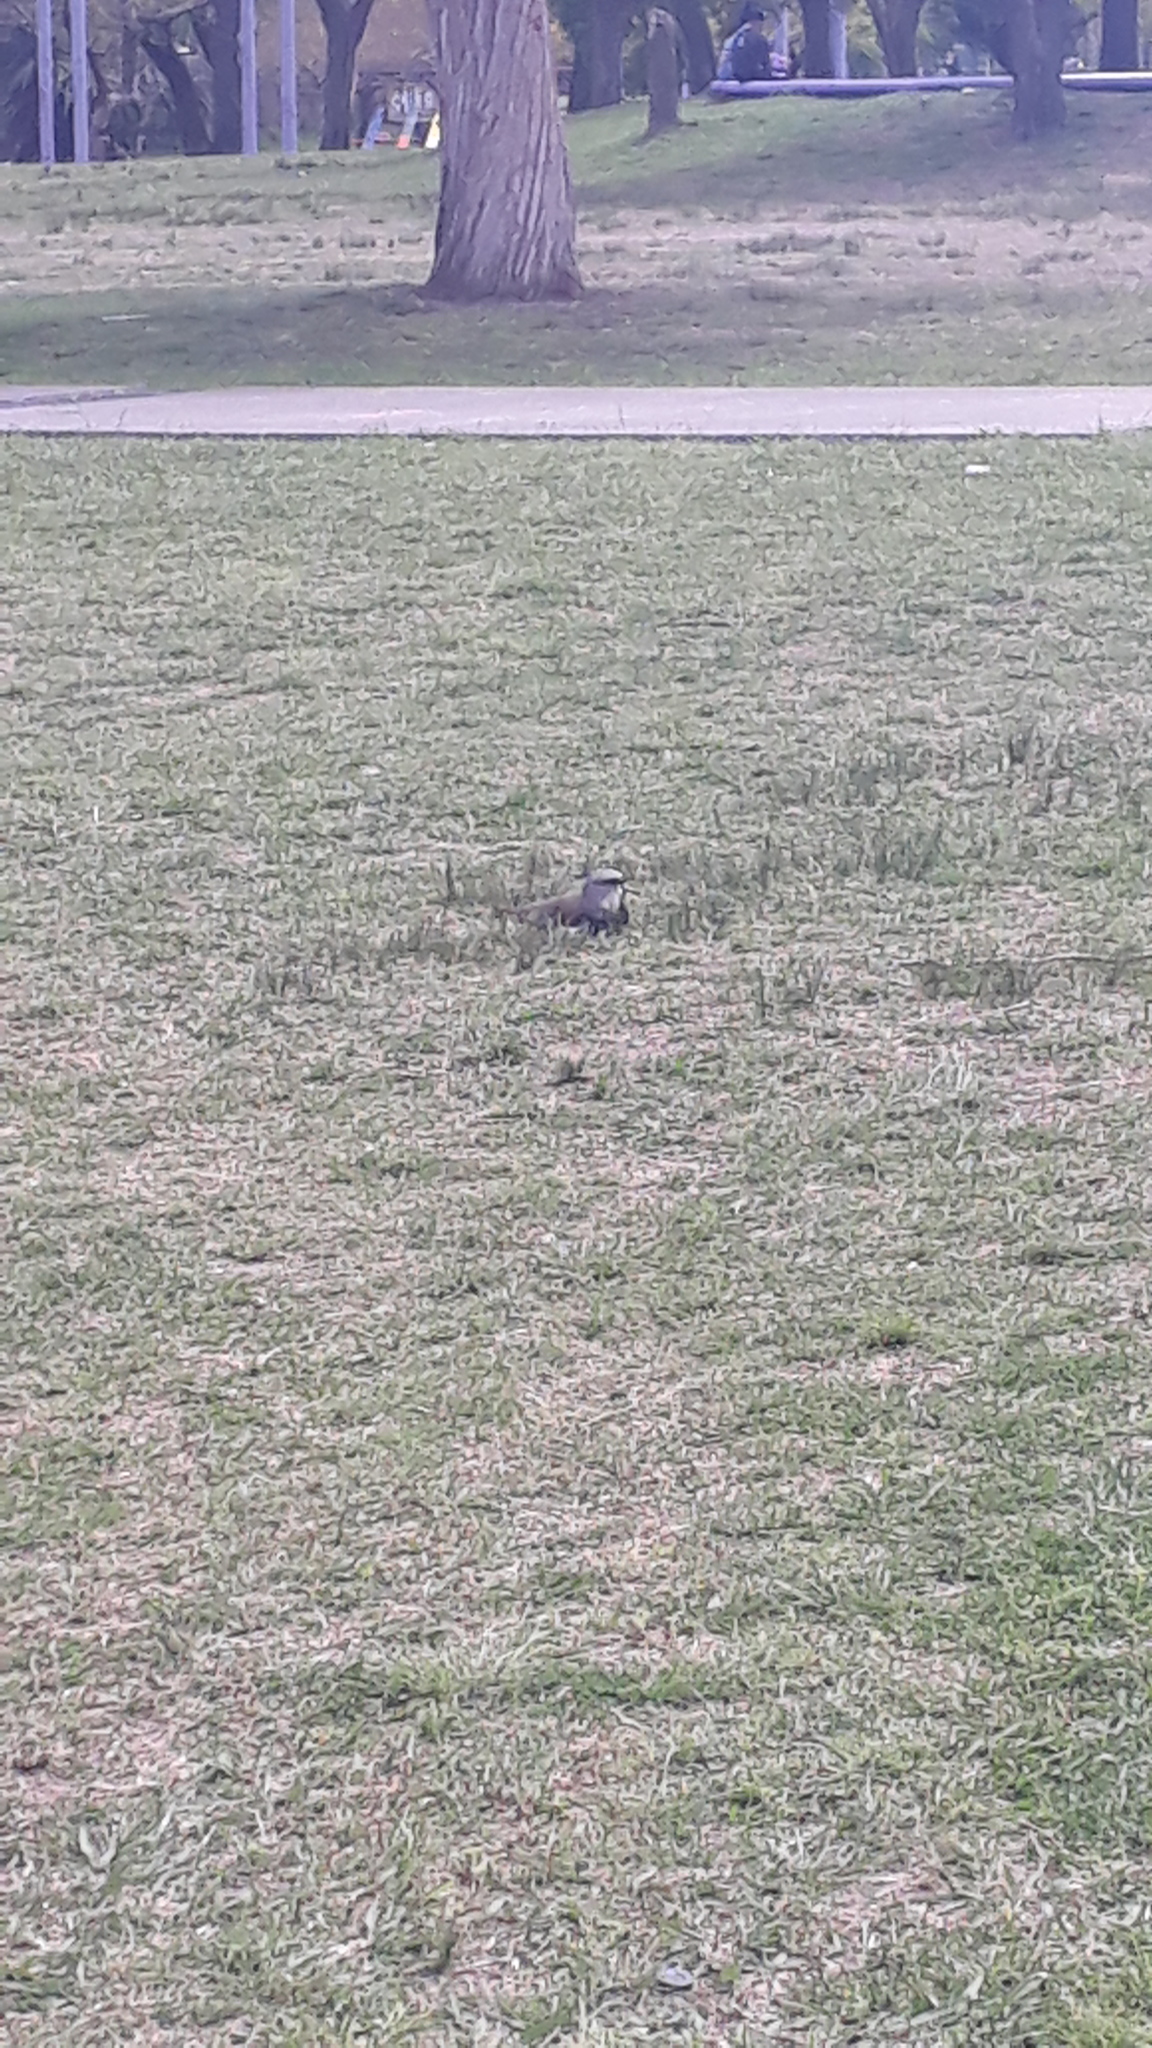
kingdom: Animalia
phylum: Chordata
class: Aves
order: Charadriiformes
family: Charadriidae
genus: Vanellus
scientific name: Vanellus chilensis
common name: Southern lapwing
